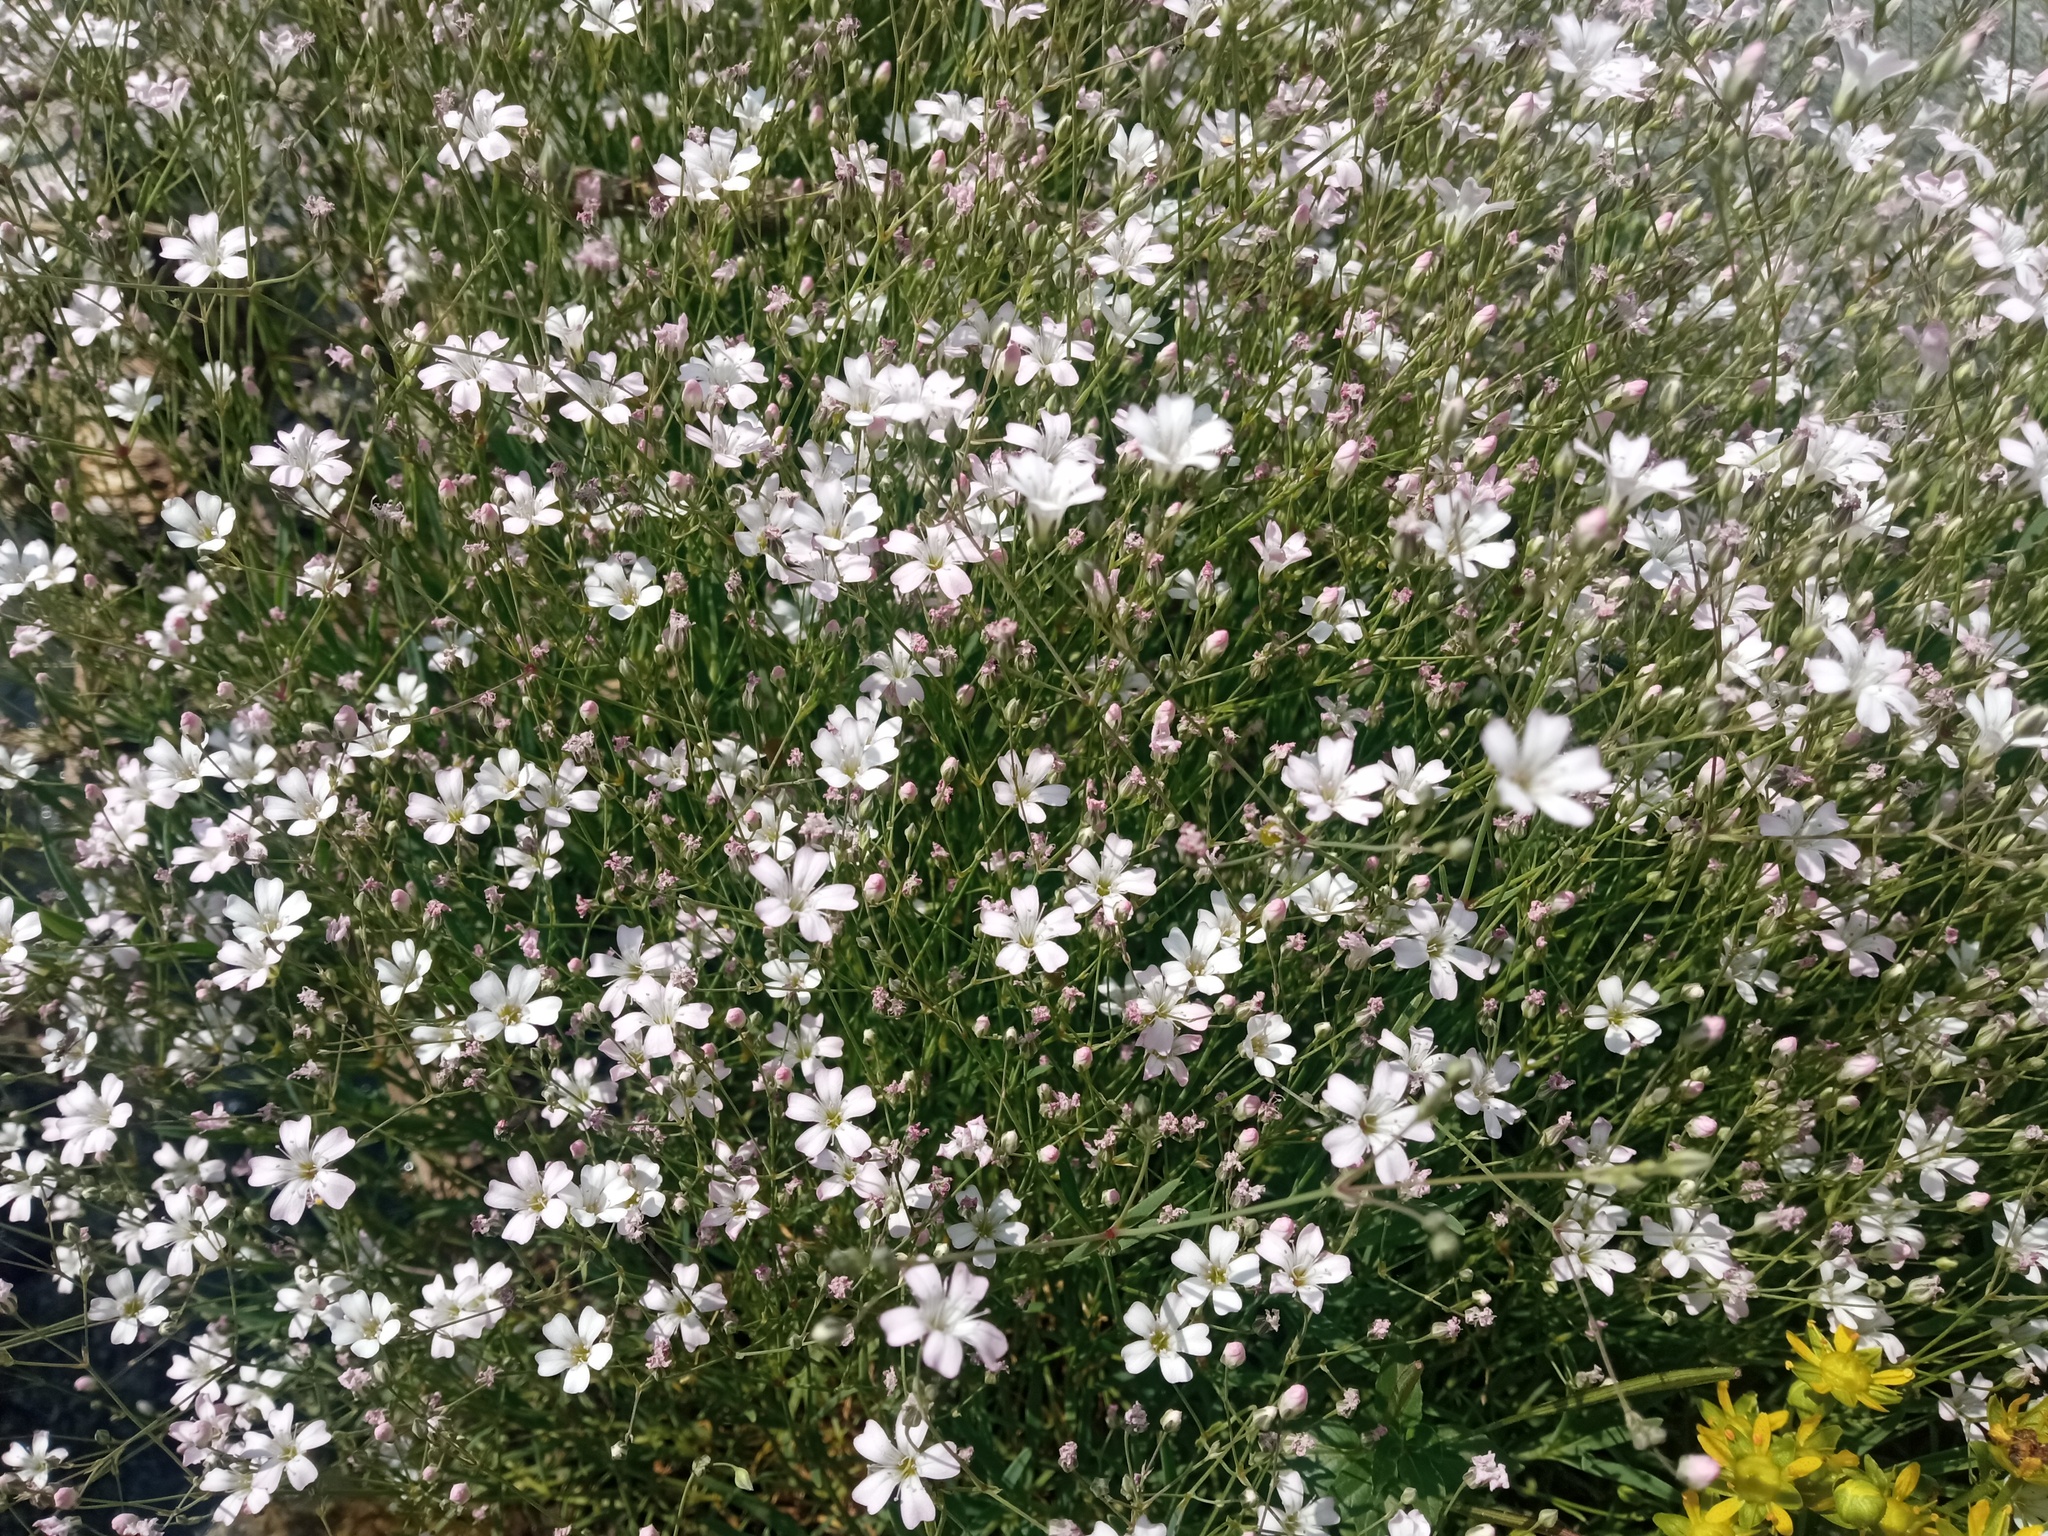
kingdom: Plantae
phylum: Tracheophyta
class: Magnoliopsida
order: Caryophyllales
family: Caryophyllaceae
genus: Gypsophila
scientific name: Gypsophila repens
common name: Creeping baby's-breath
